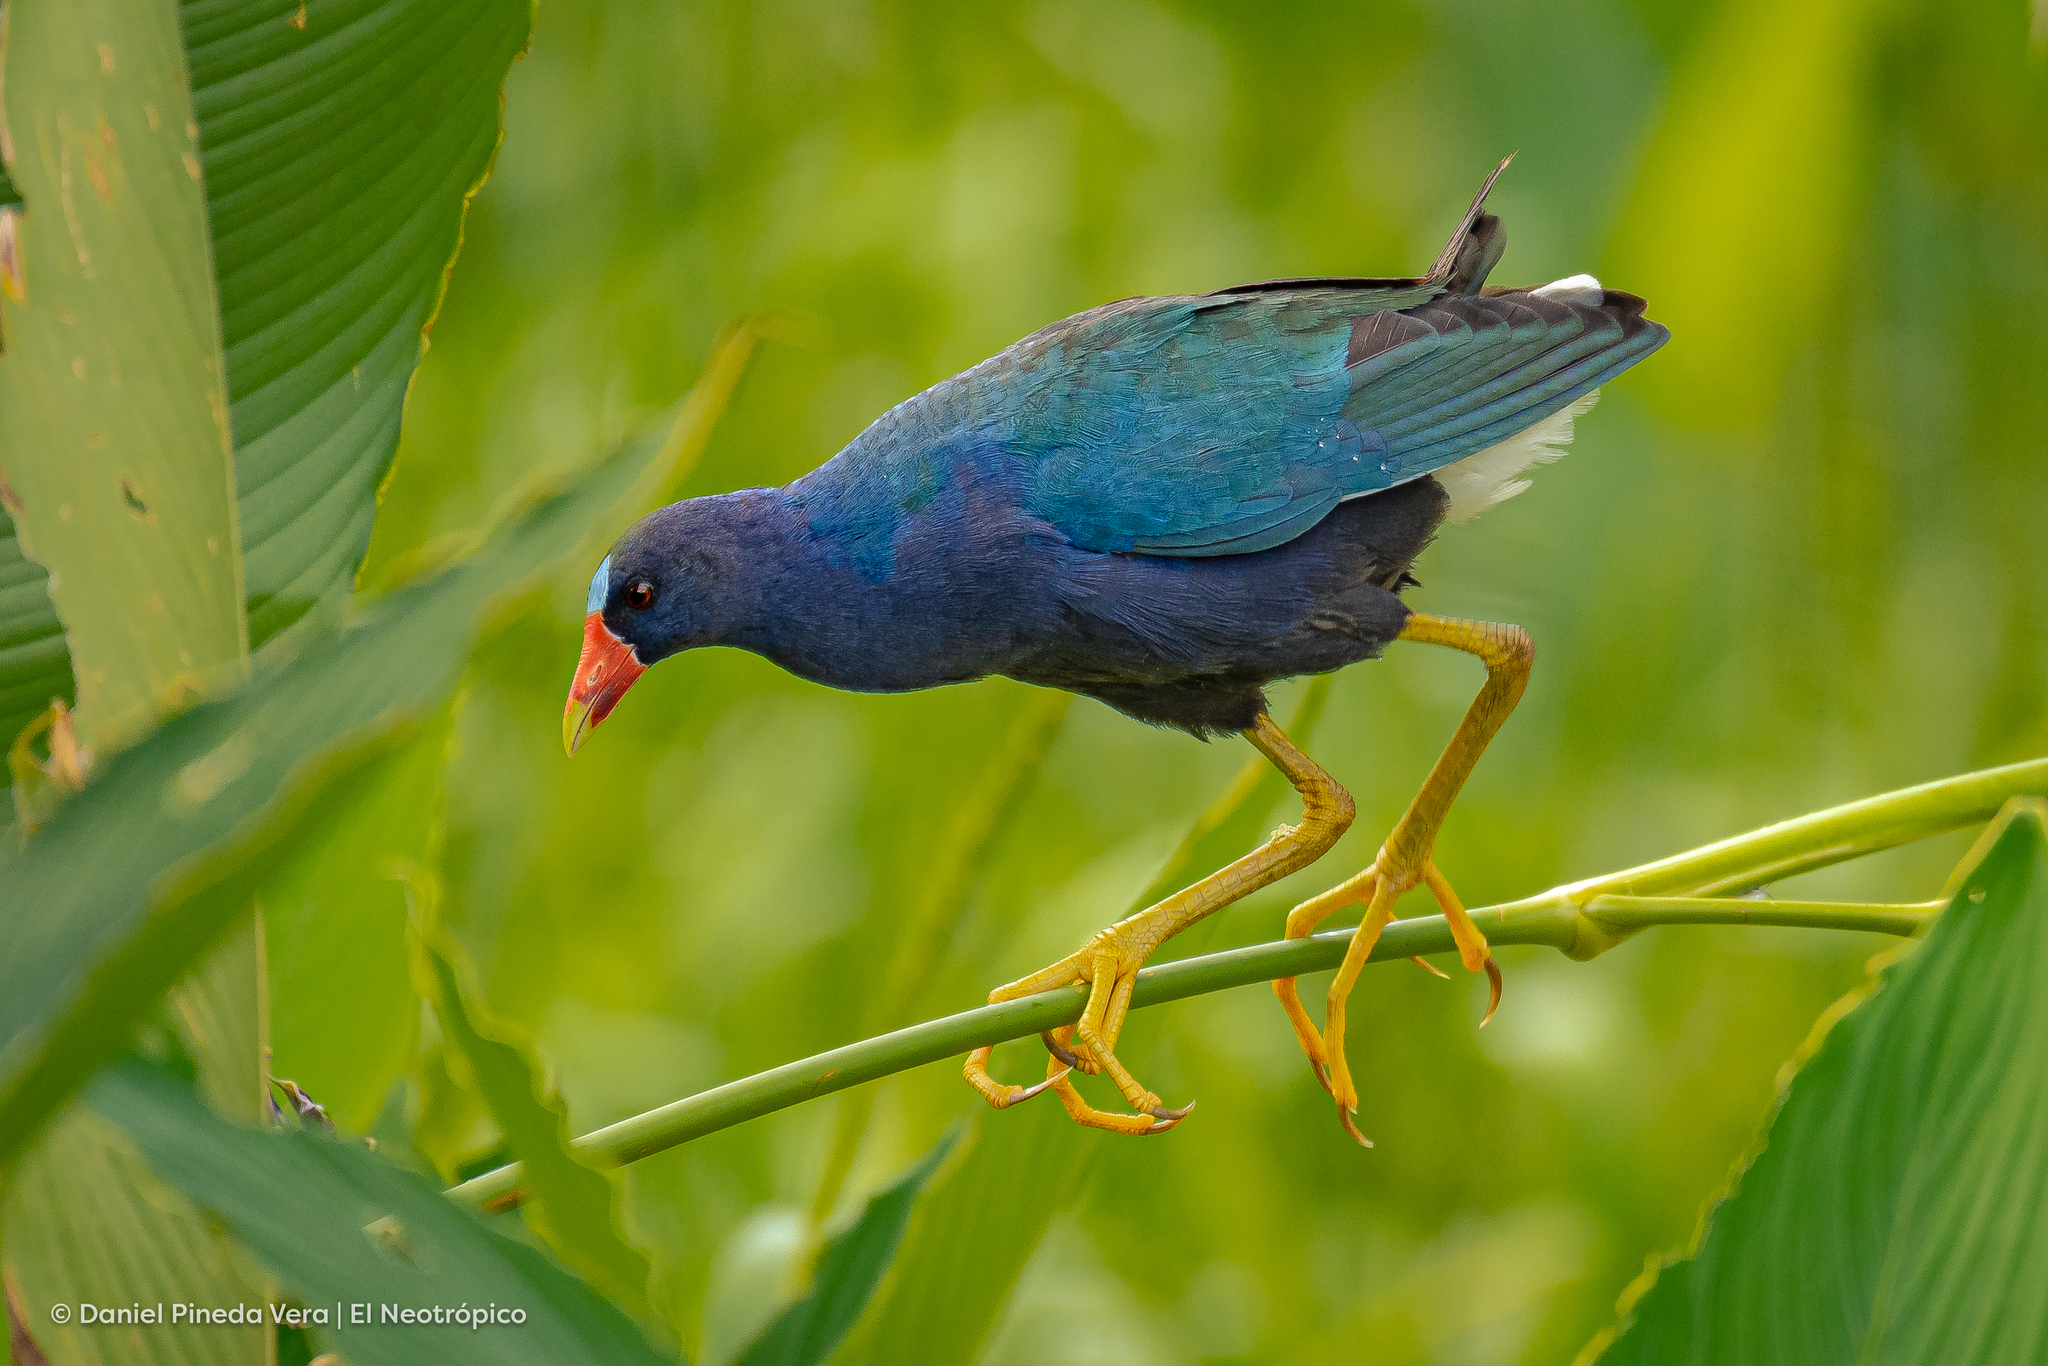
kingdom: Animalia
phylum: Chordata
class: Aves
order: Gruiformes
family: Rallidae
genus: Porphyrio
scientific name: Porphyrio martinica
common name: Purple gallinule
